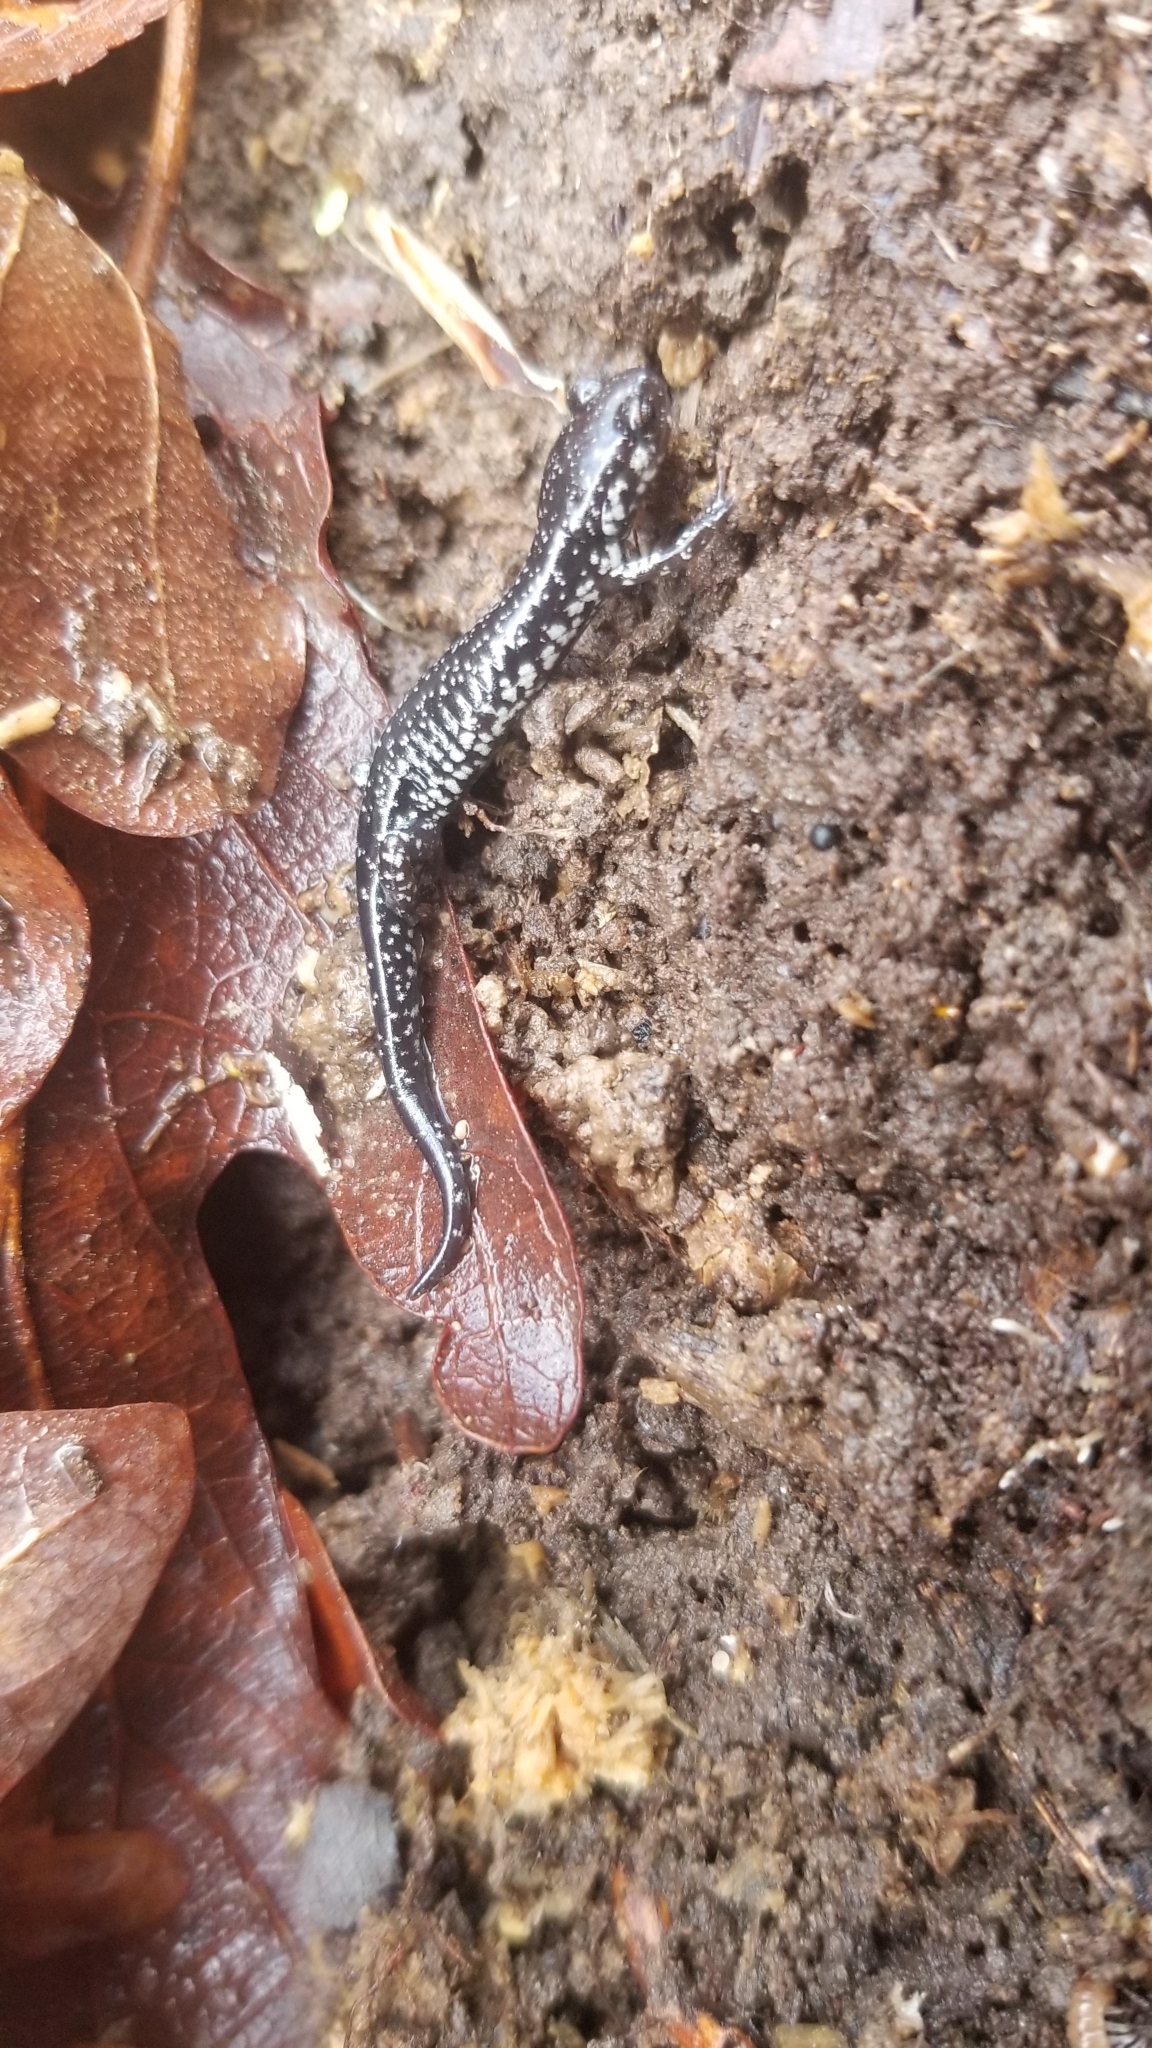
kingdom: Animalia
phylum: Chordata
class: Amphibia
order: Caudata
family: Plethodontidae
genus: Plethodon
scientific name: Plethodon mississippi
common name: Mississippi slimy salamander
